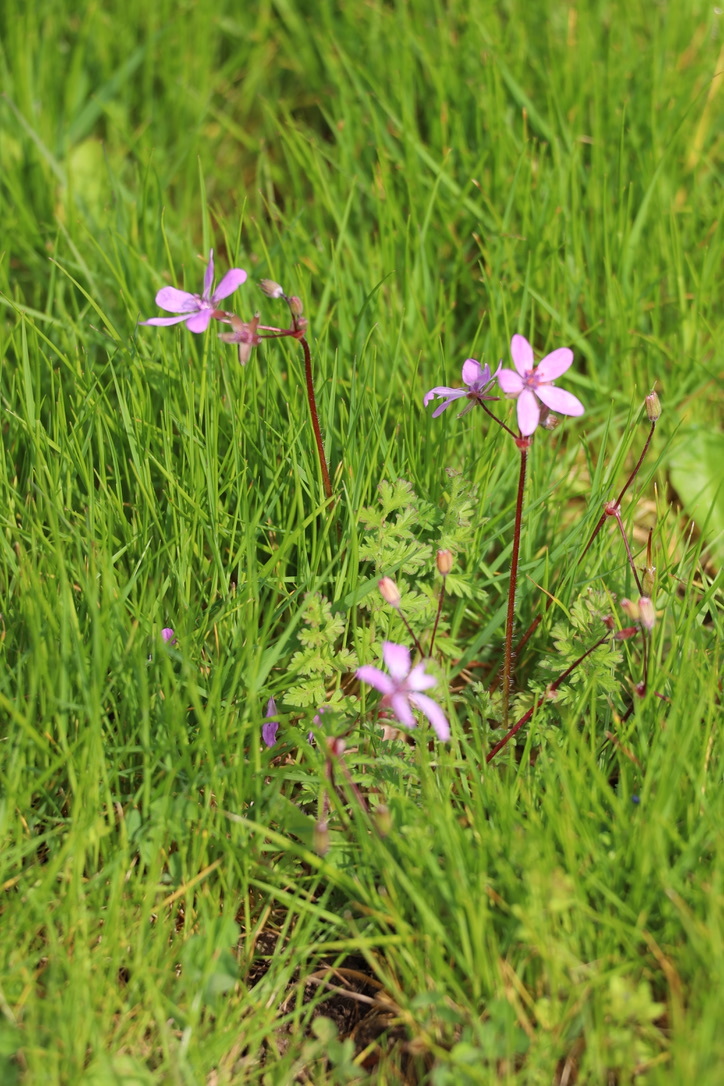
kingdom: Plantae
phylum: Tracheophyta
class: Magnoliopsida
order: Geraniales
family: Geraniaceae
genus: Erodium
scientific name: Erodium cicutarium
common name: Common stork's-bill
